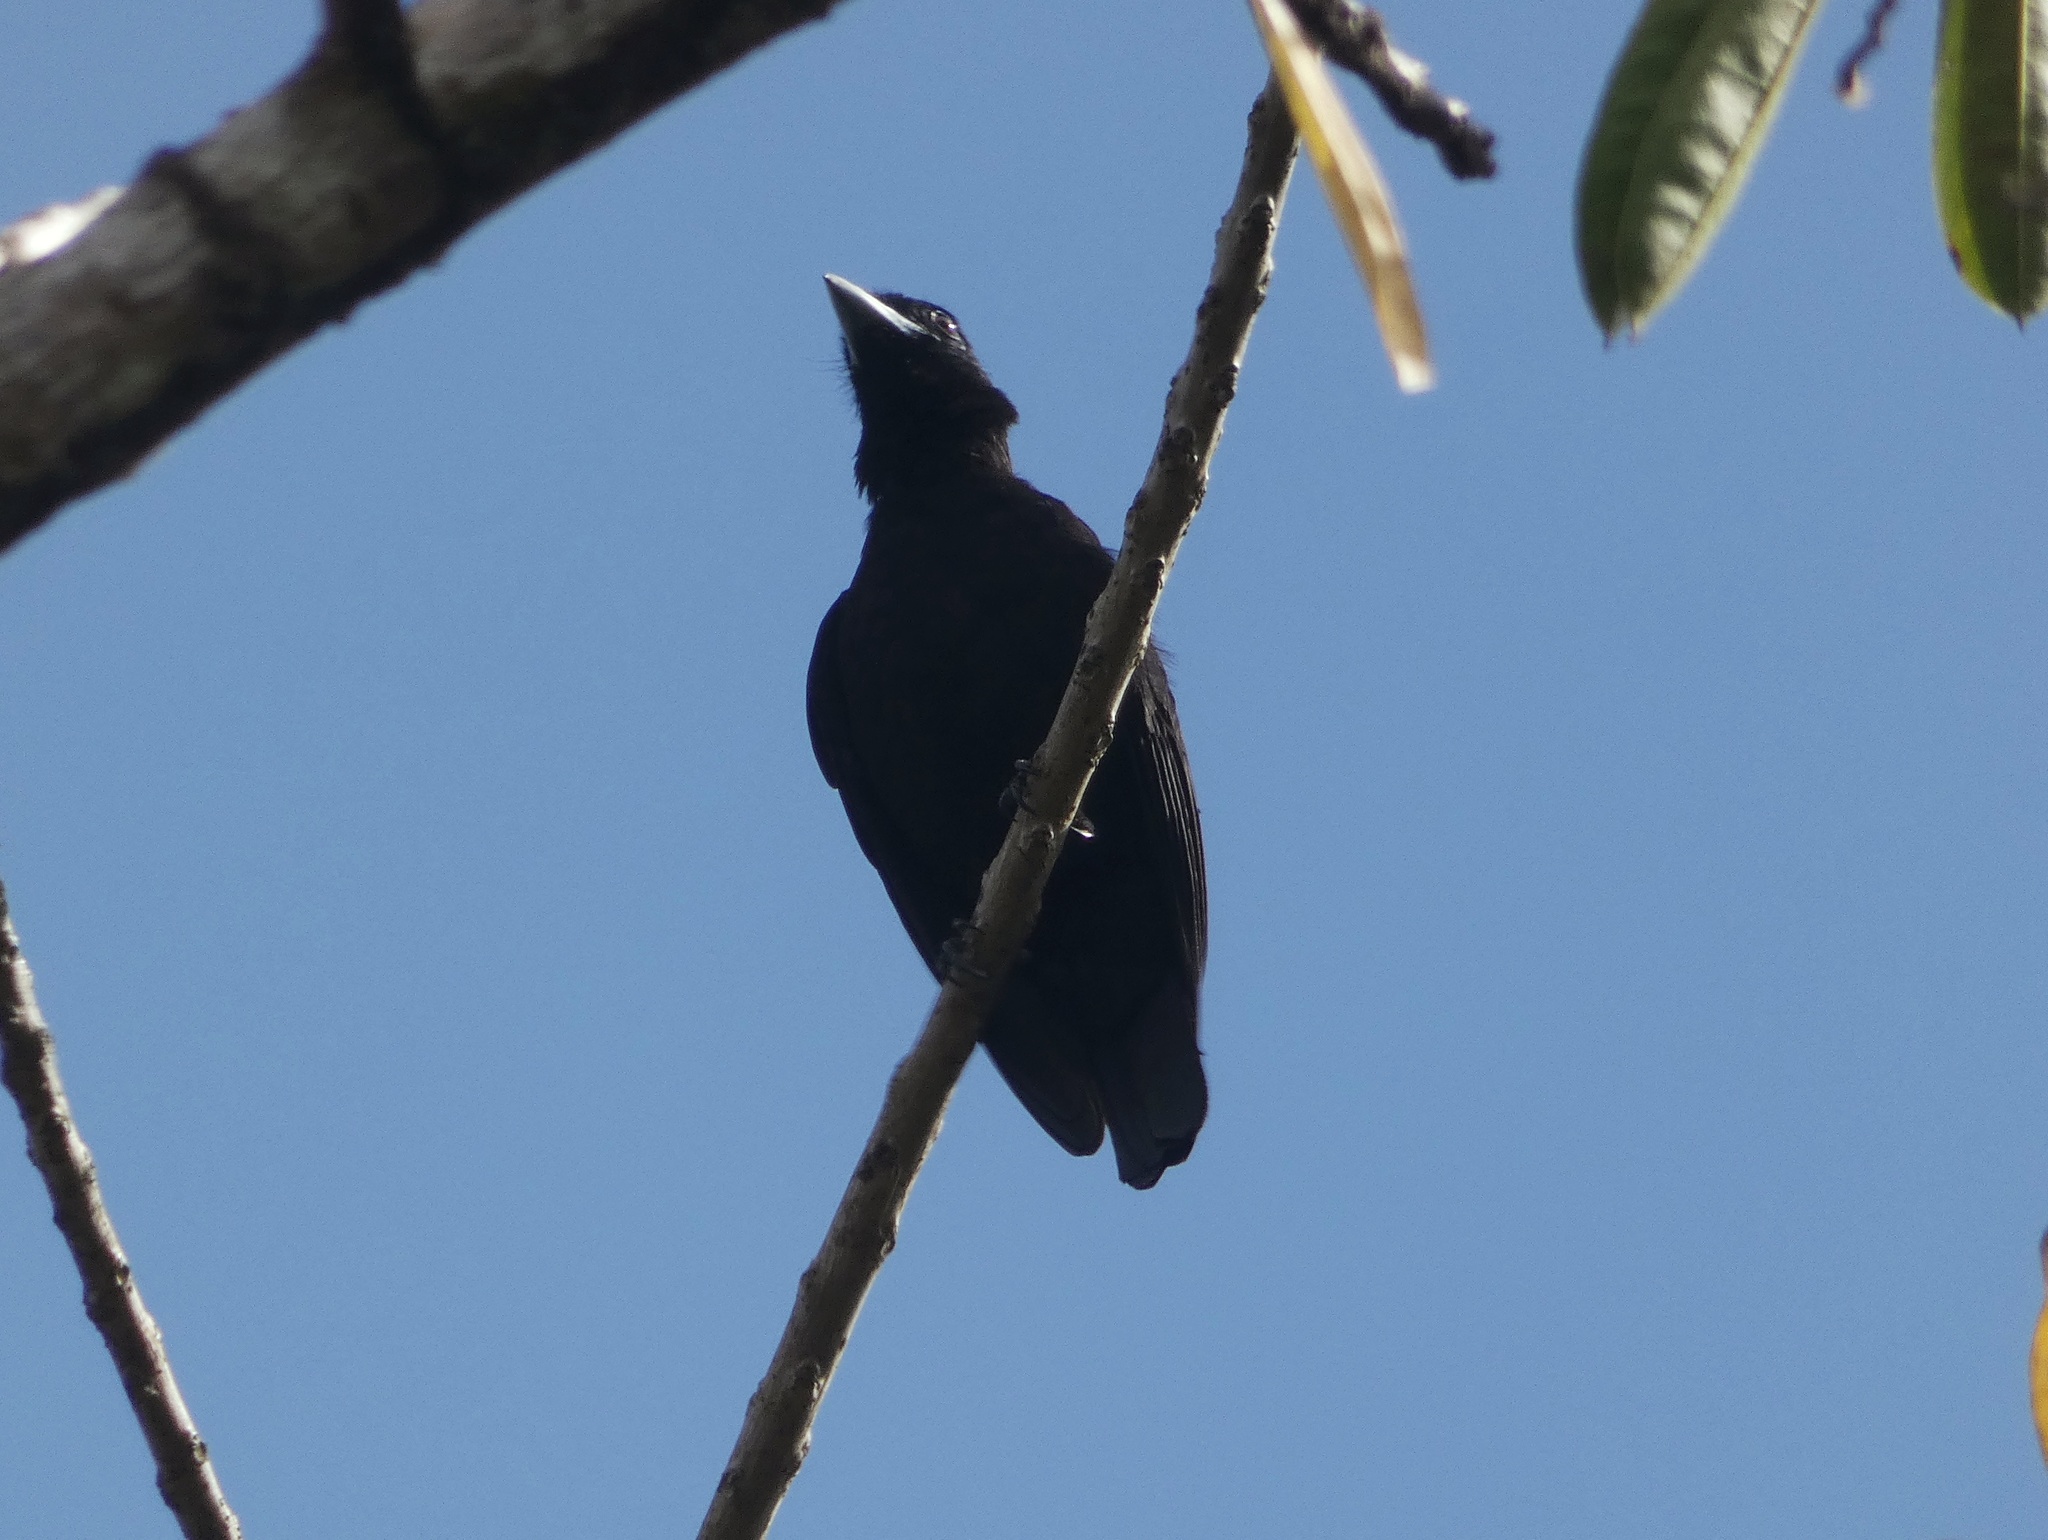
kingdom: Animalia
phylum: Chordata
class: Aves
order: Passeriformes
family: Cotingidae
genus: Querula
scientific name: Querula purpurata
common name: Purple-throated fruitcrow
